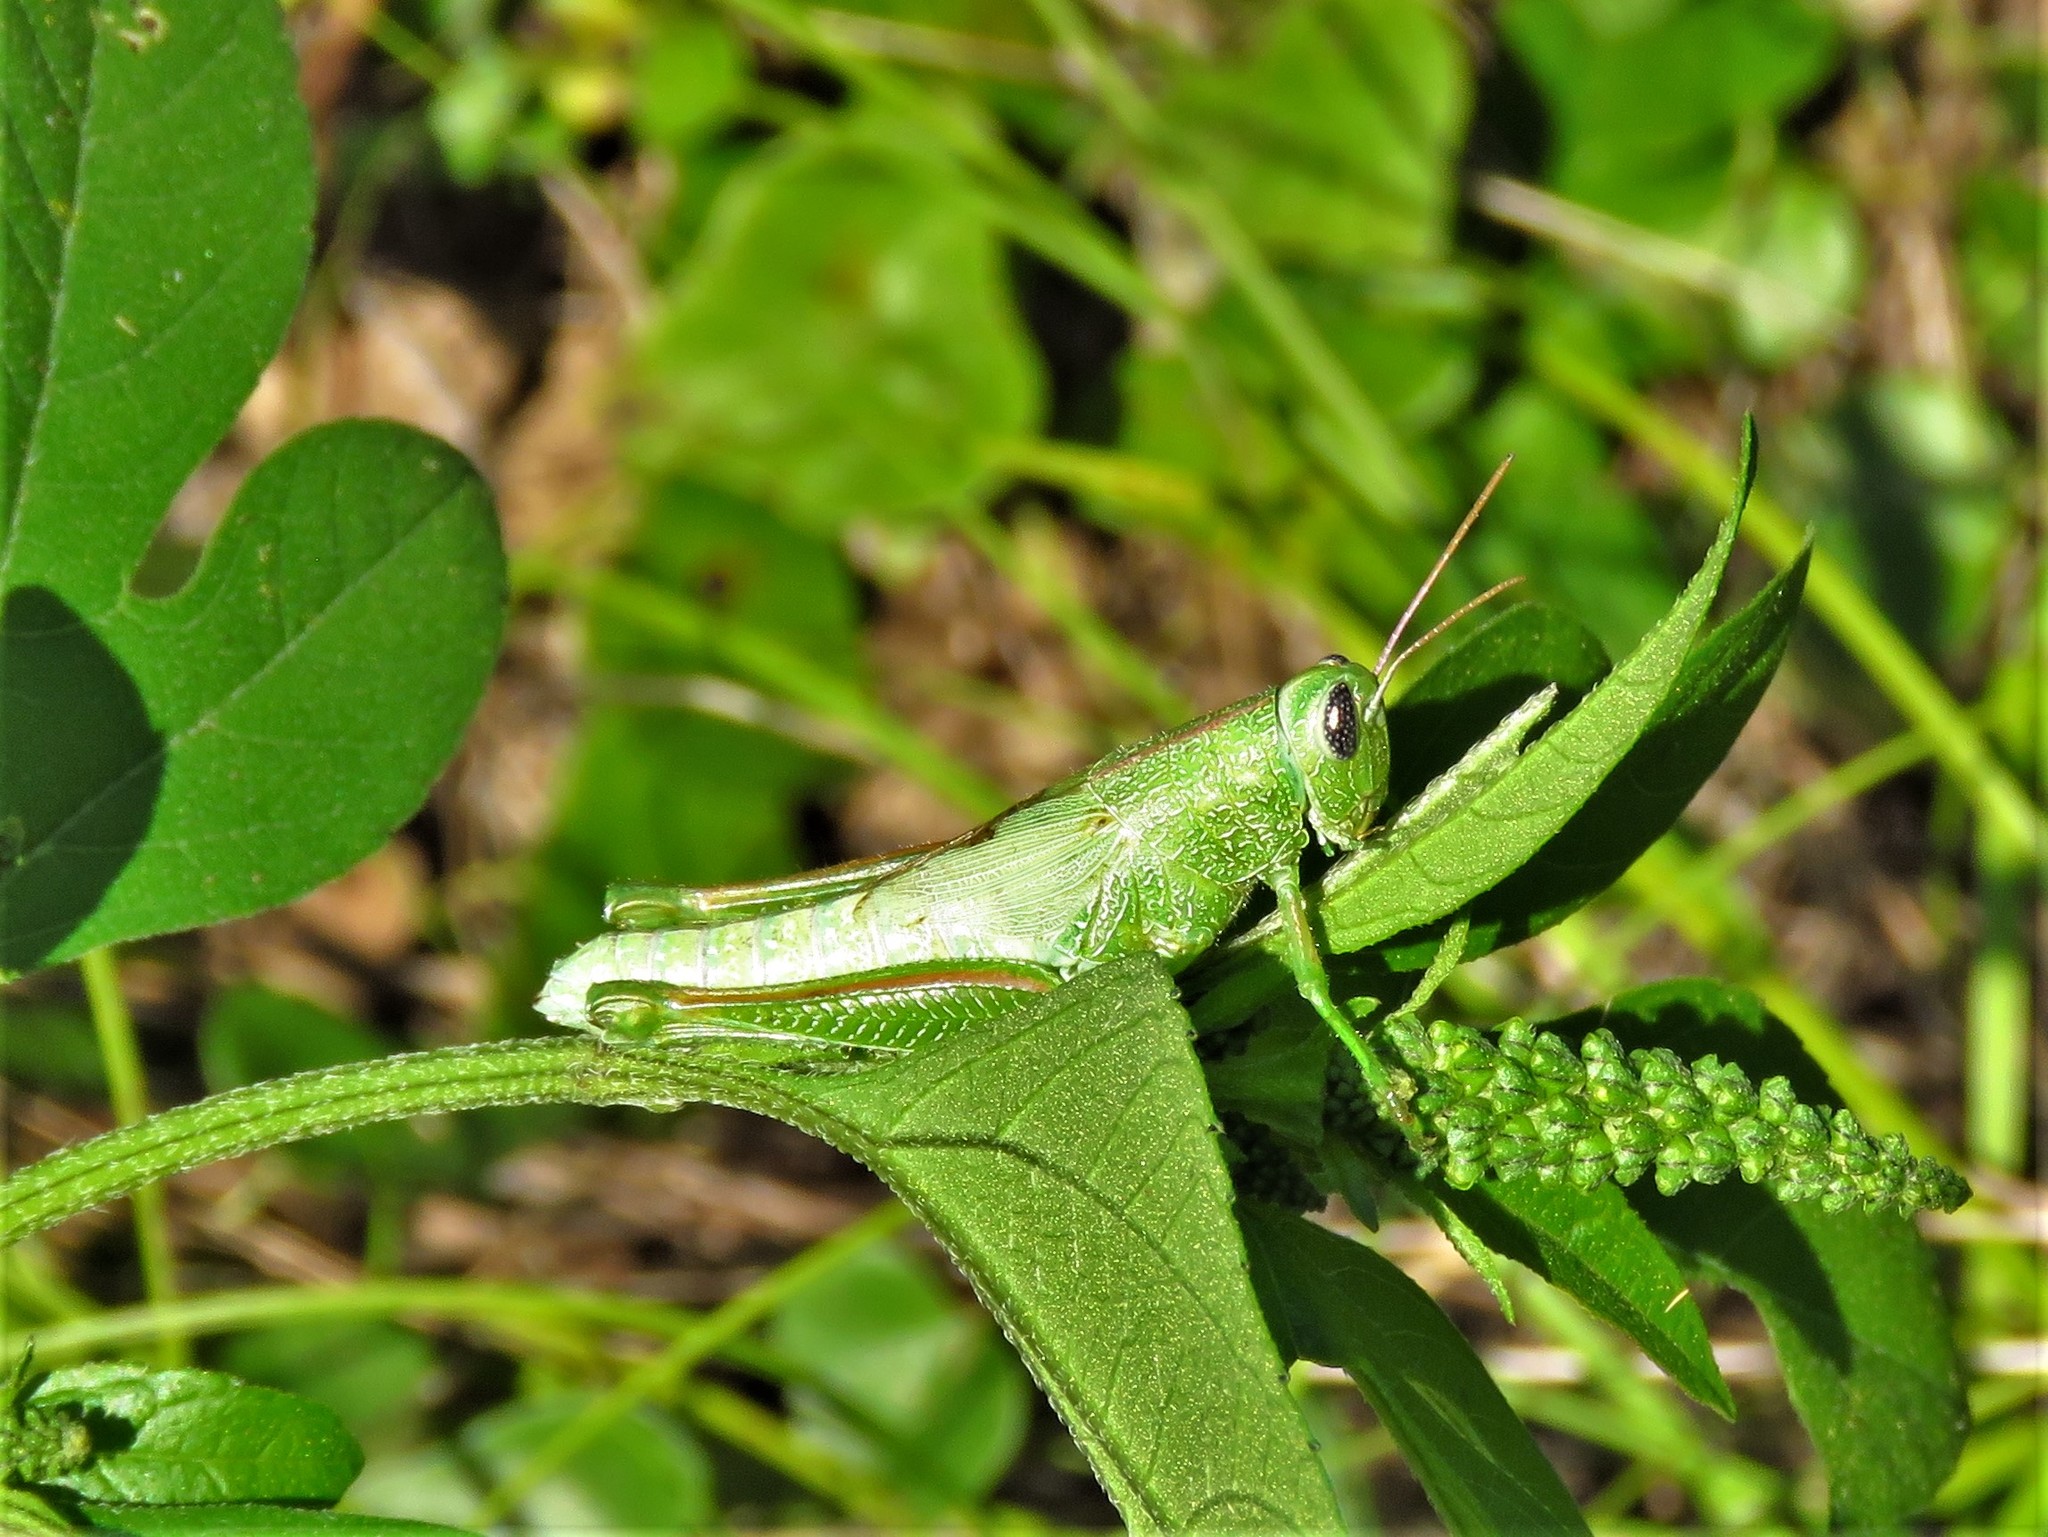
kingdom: Animalia
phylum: Arthropoda
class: Insecta
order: Orthoptera
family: Acrididae
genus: Hesperotettix
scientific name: Hesperotettix speciosus
